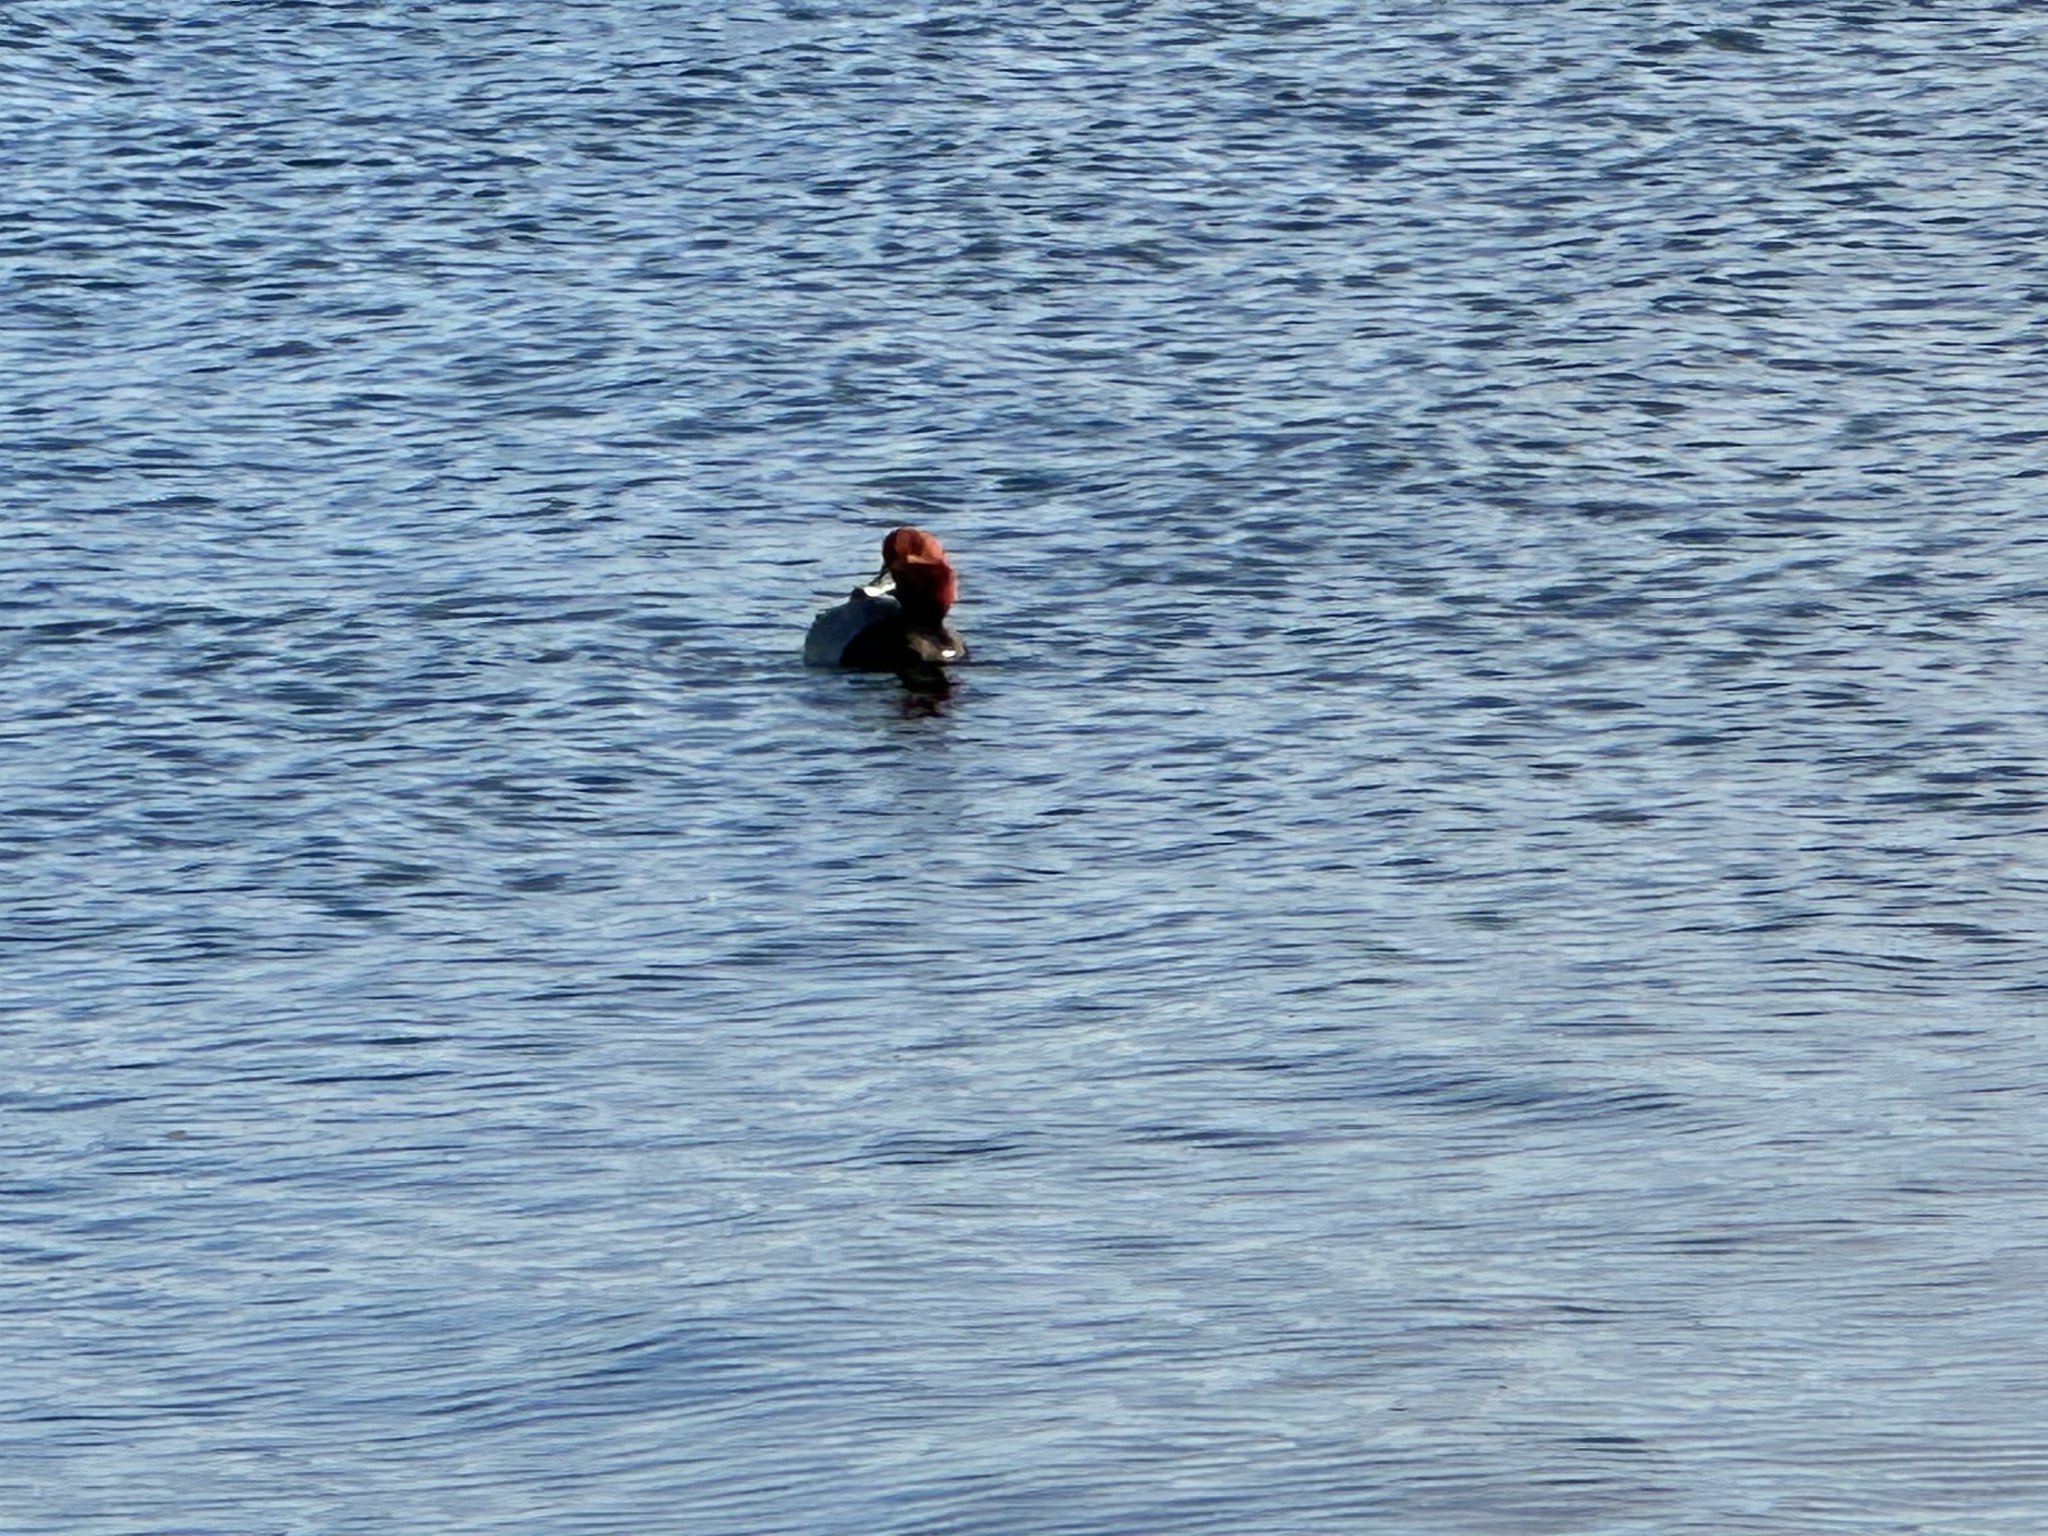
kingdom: Animalia
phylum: Chordata
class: Aves
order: Anseriformes
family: Anatidae
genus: Aythya
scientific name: Aythya americana
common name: Redhead
